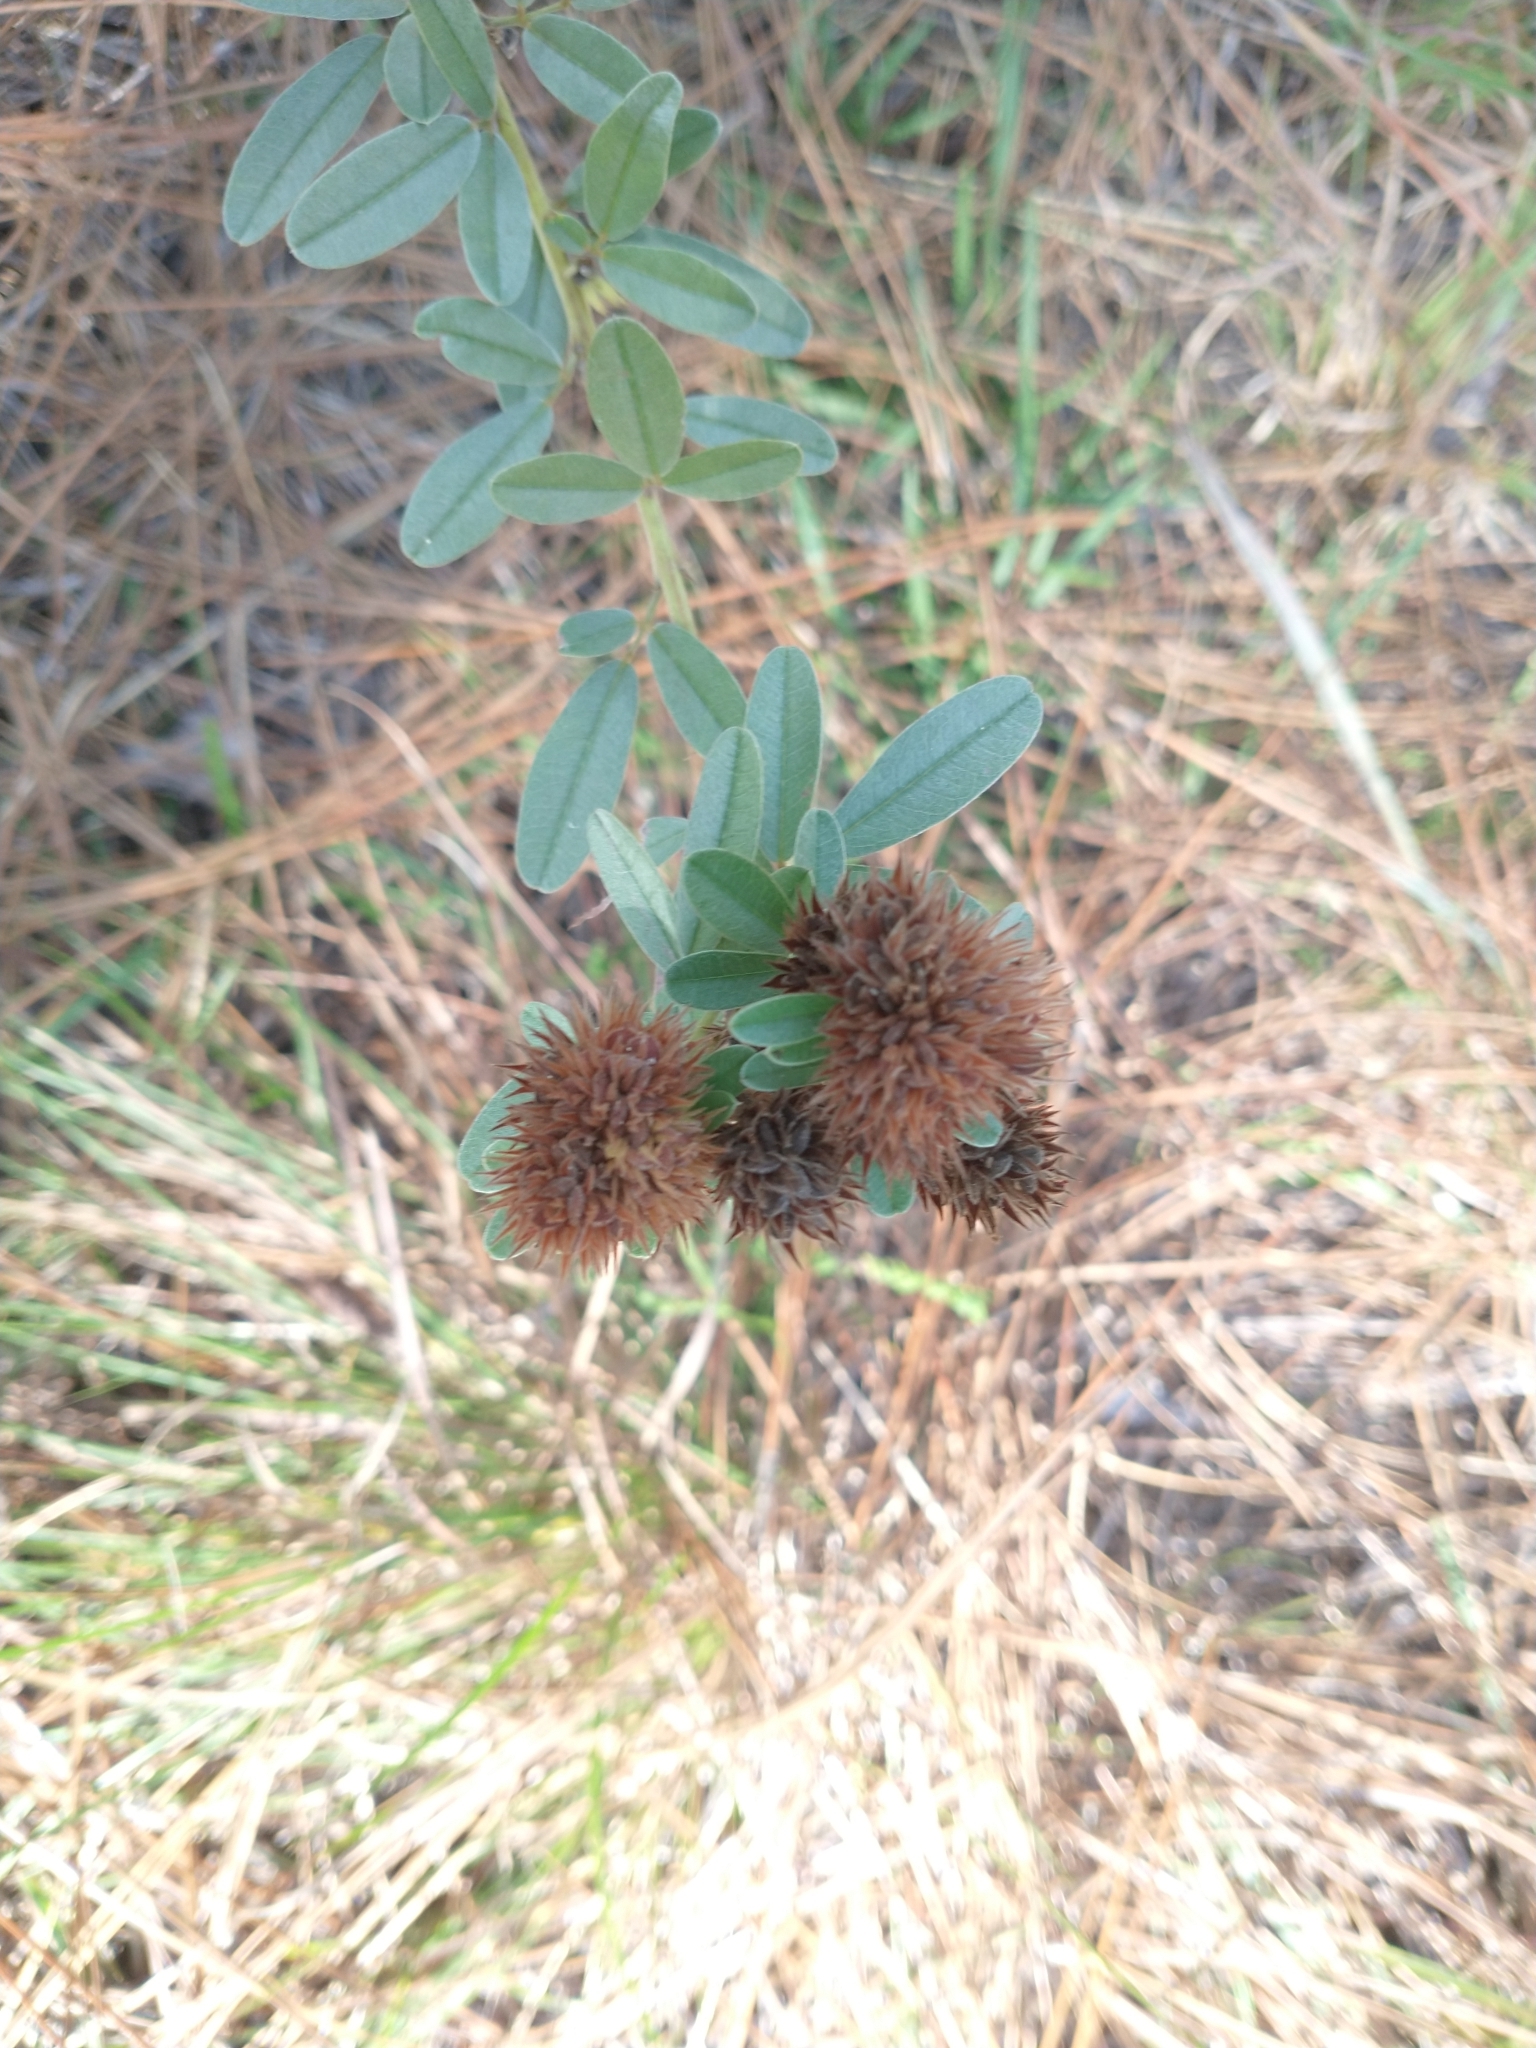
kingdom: Plantae
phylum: Tracheophyta
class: Magnoliopsida
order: Fabales
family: Fabaceae
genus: Lespedeza
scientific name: Lespedeza capitata
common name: Dusty clover
